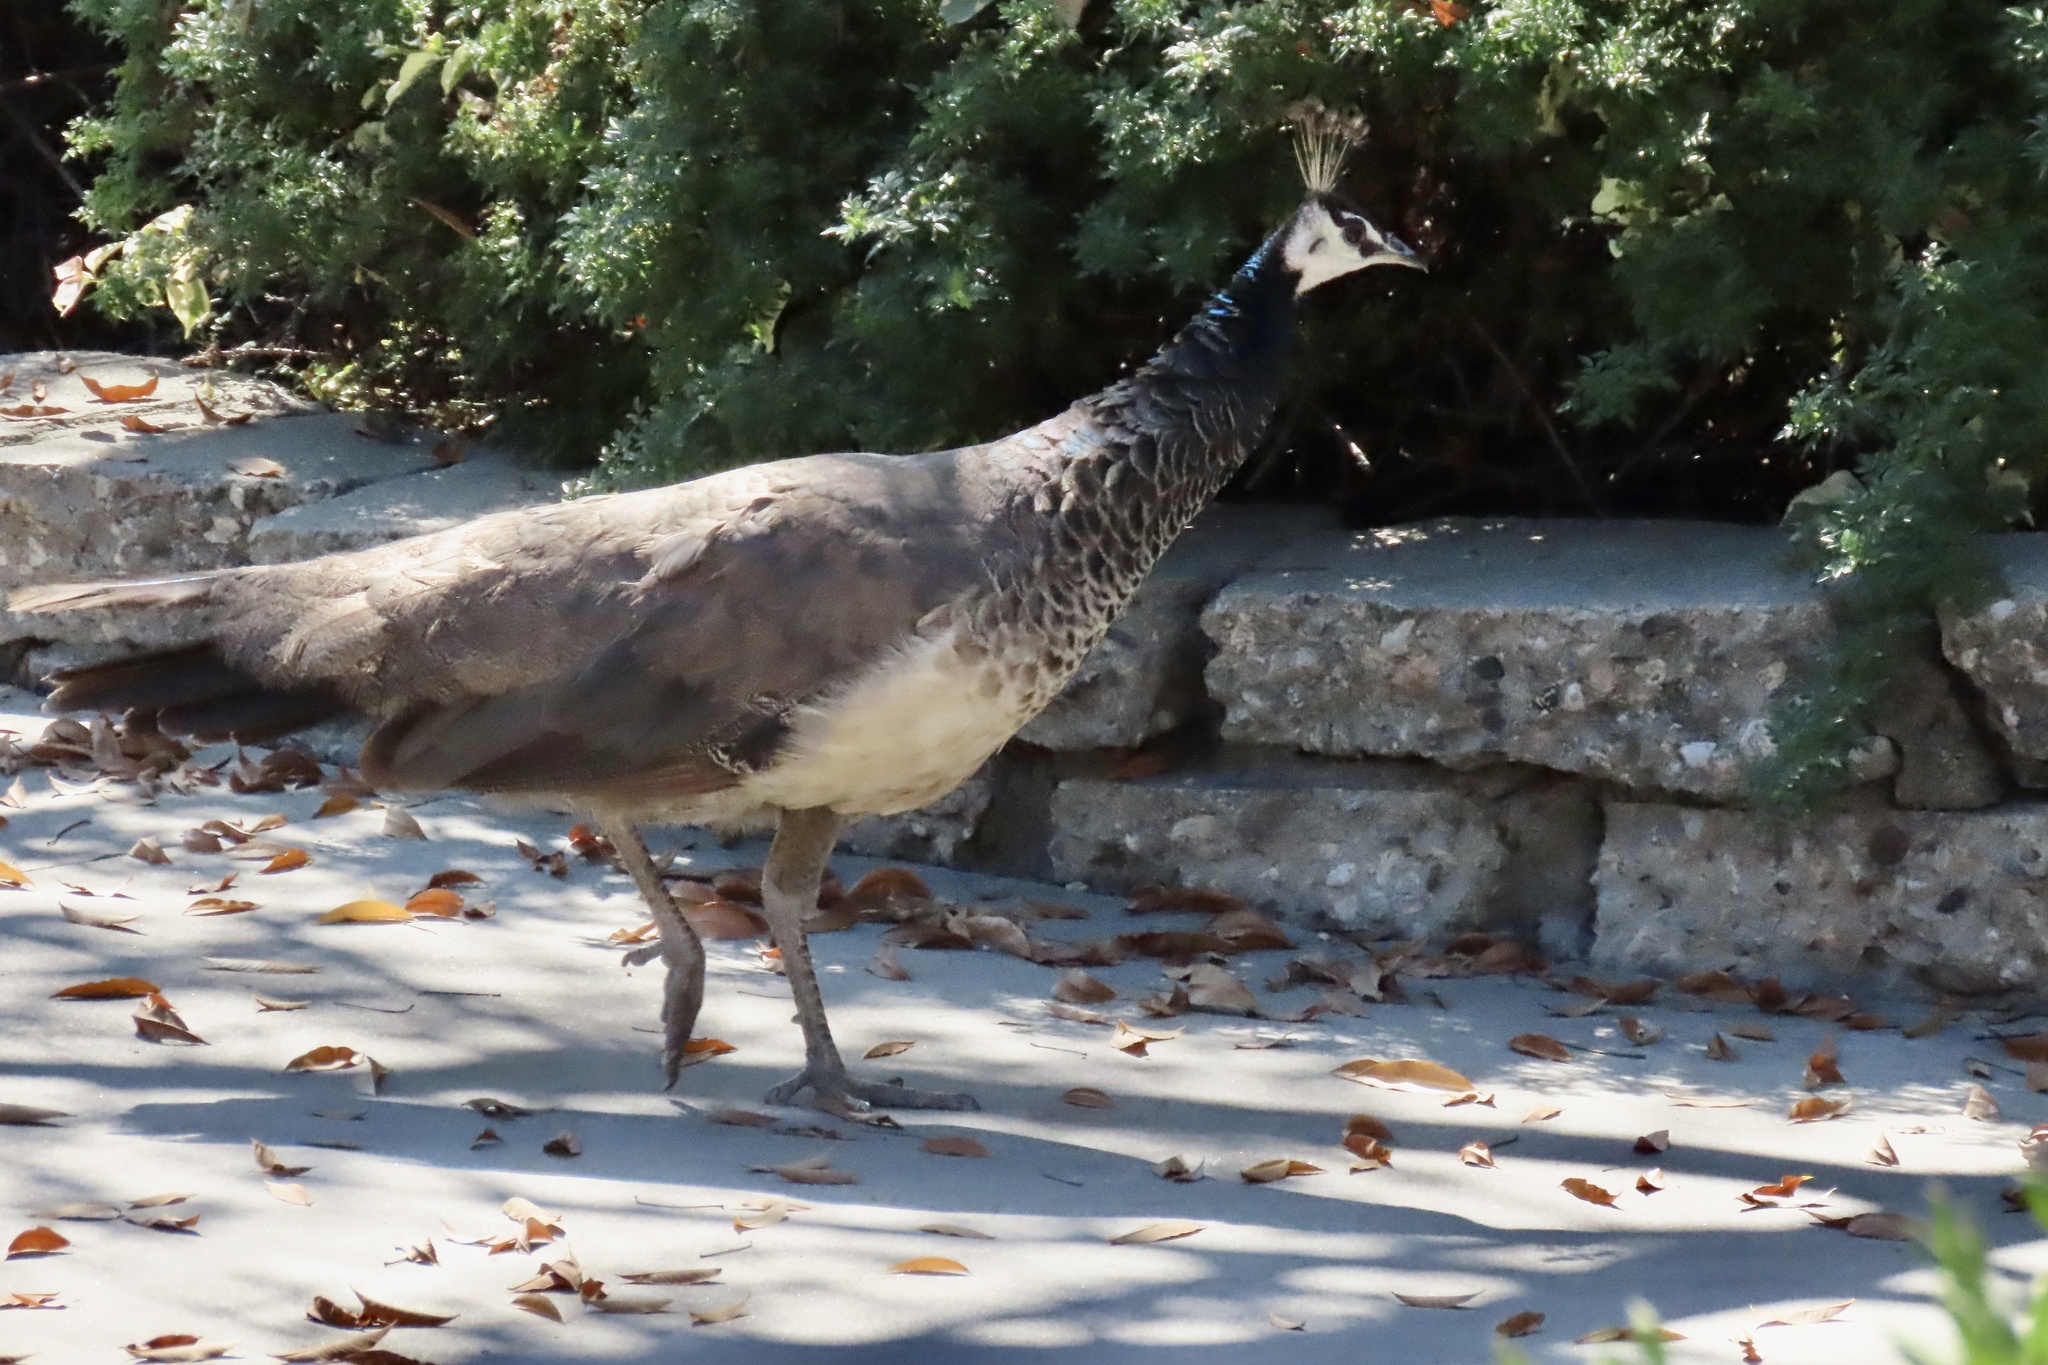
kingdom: Animalia
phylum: Chordata
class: Aves
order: Galliformes
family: Phasianidae
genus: Pavo
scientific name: Pavo cristatus
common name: Indian peafowl
